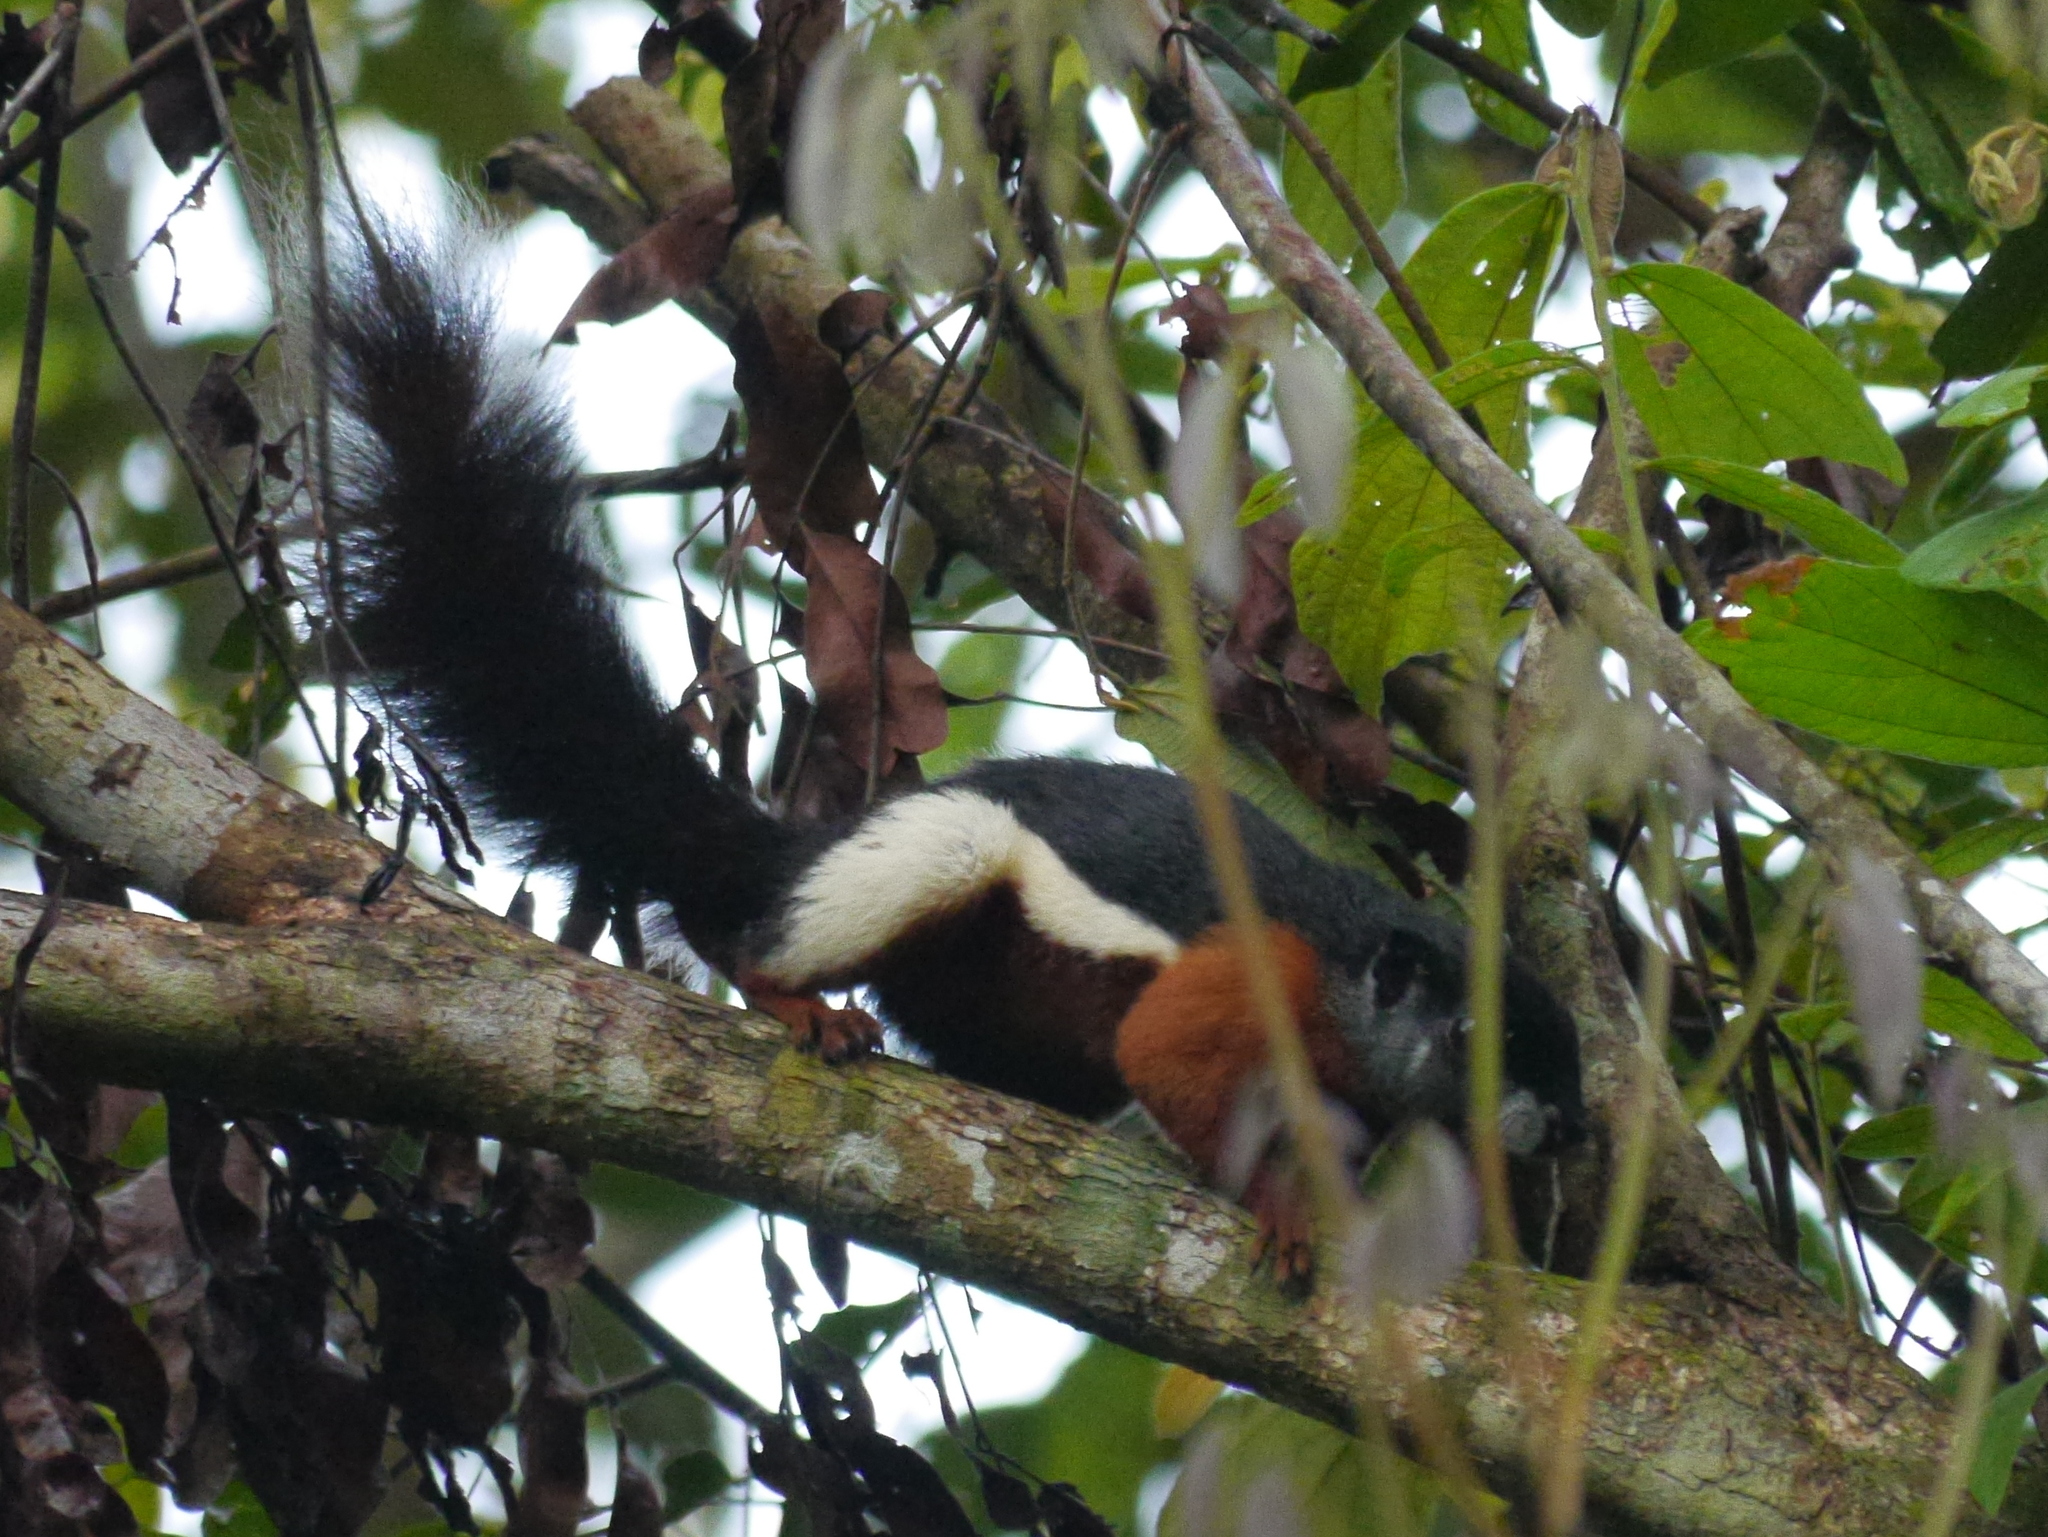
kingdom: Animalia
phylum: Chordata
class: Mammalia
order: Rodentia
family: Sciuridae
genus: Callosciurus
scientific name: Callosciurus prevostii
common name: Prevost's squirrel
